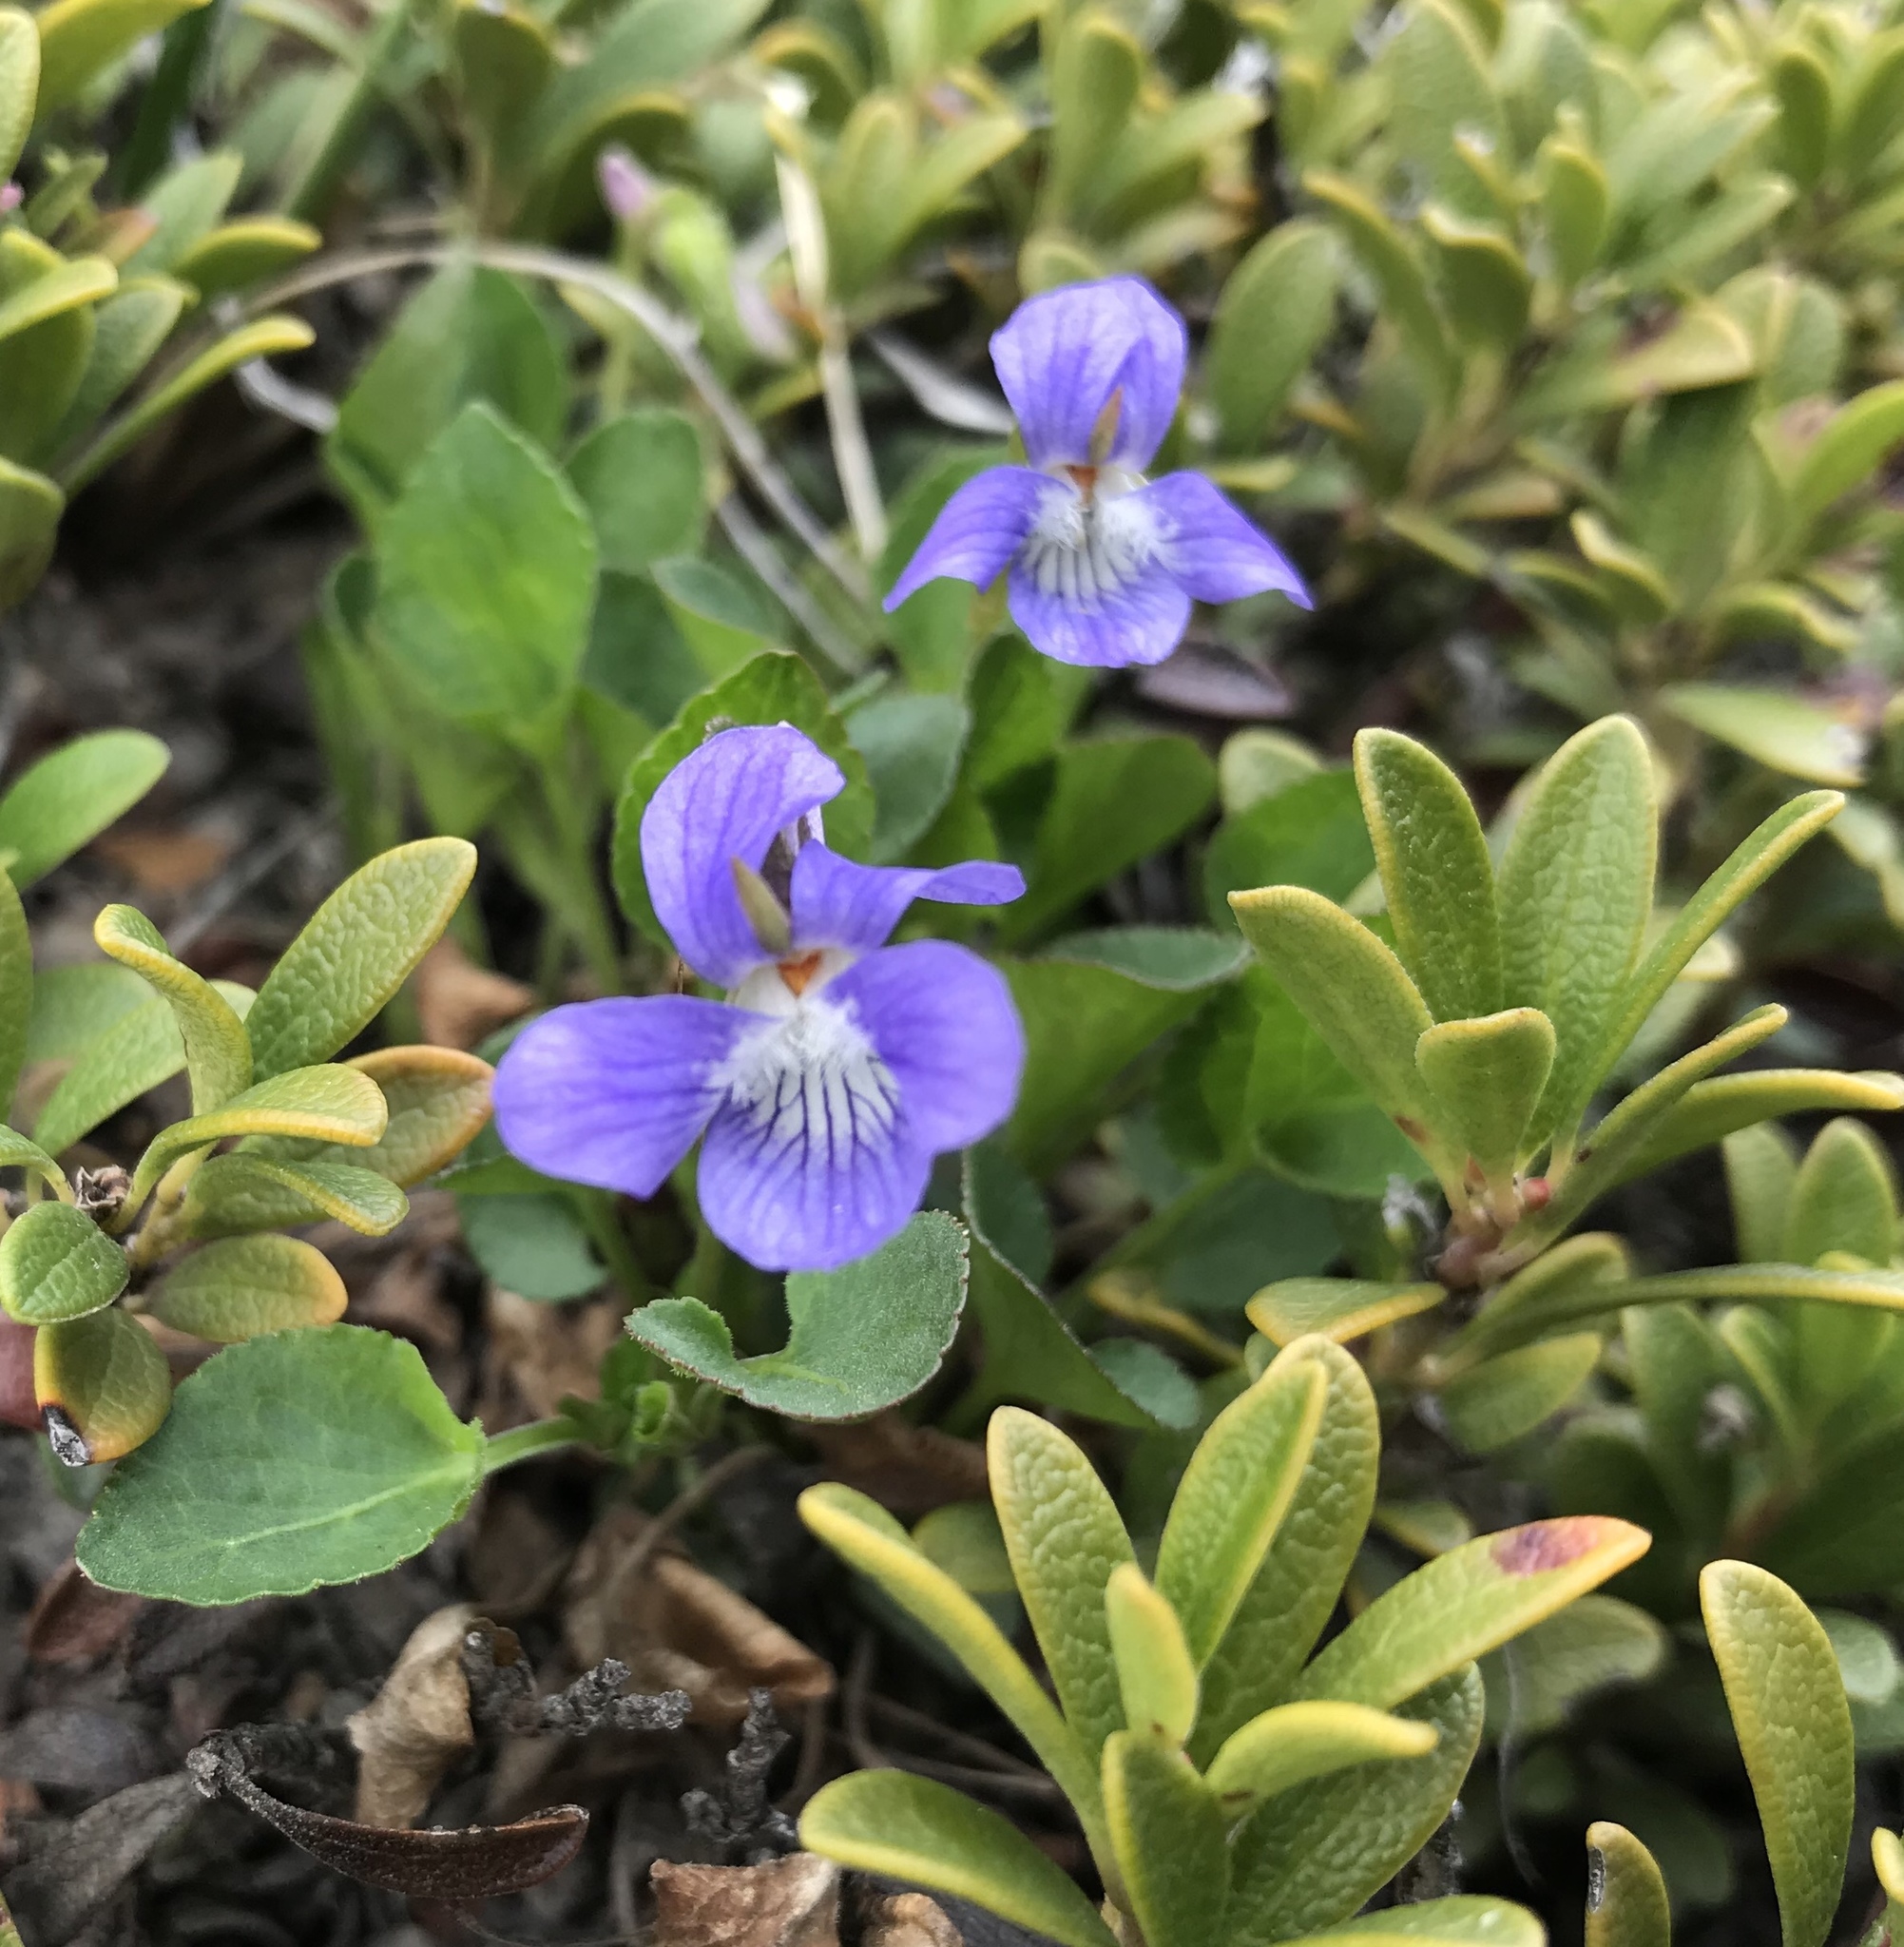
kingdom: Plantae
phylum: Tracheophyta
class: Magnoliopsida
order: Malpighiales
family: Violaceae
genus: Viola
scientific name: Viola adunca
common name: Sand violet
